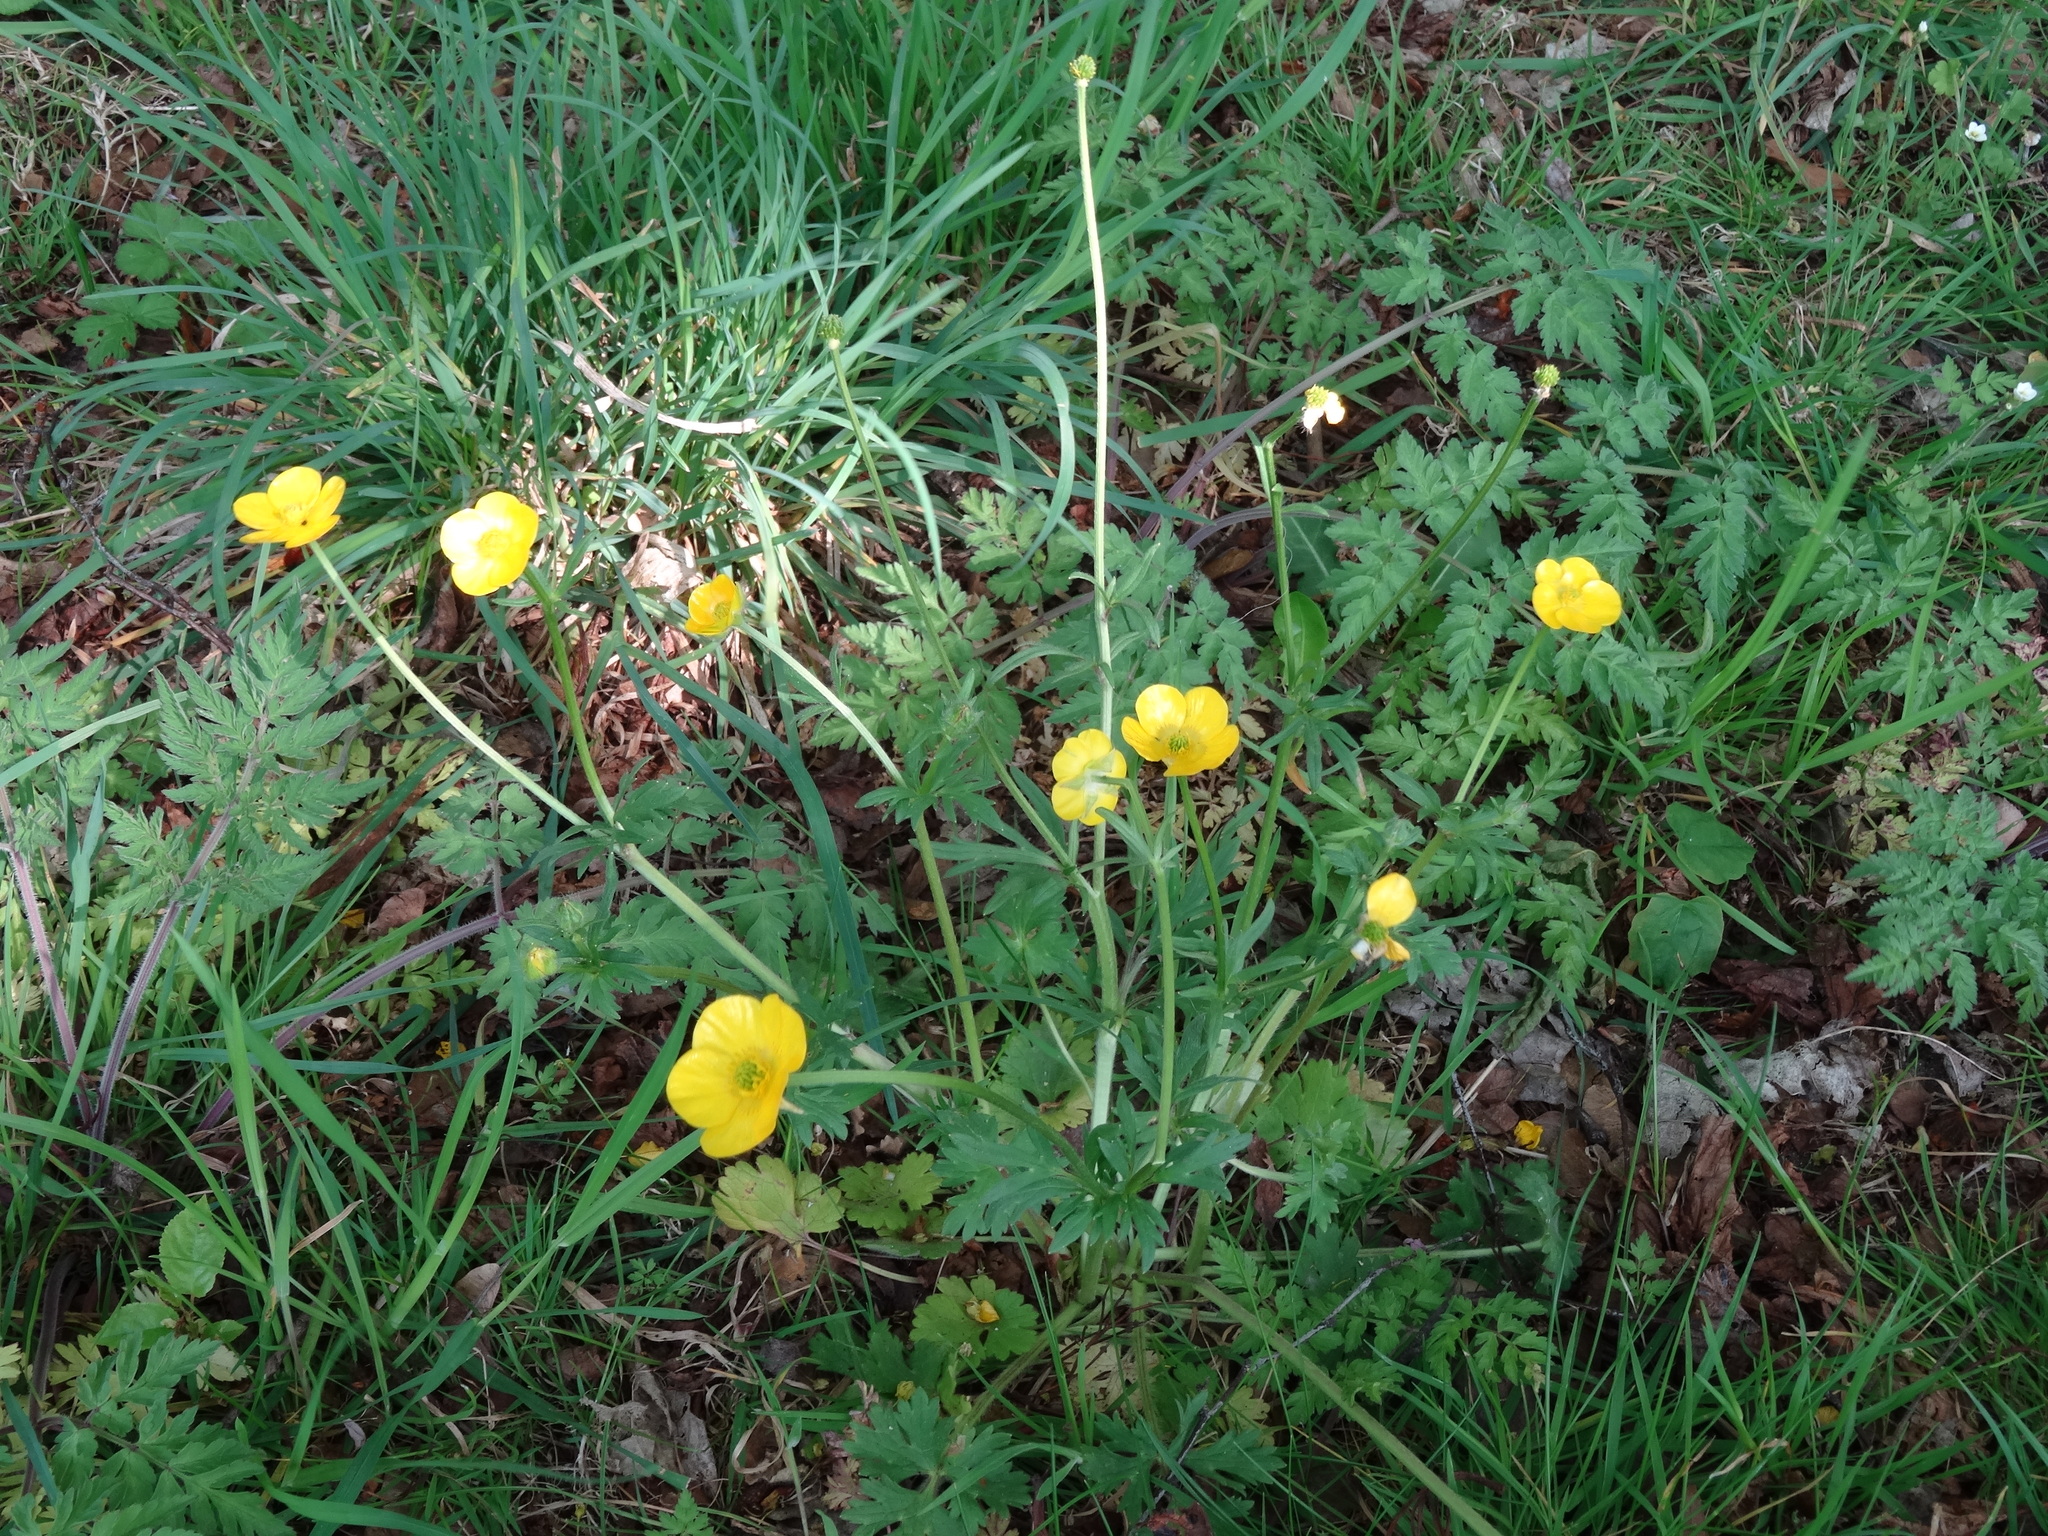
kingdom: Plantae
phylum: Tracheophyta
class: Magnoliopsida
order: Ranunculales
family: Ranunculaceae
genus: Ranunculus
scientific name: Ranunculus acris
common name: Meadow buttercup
